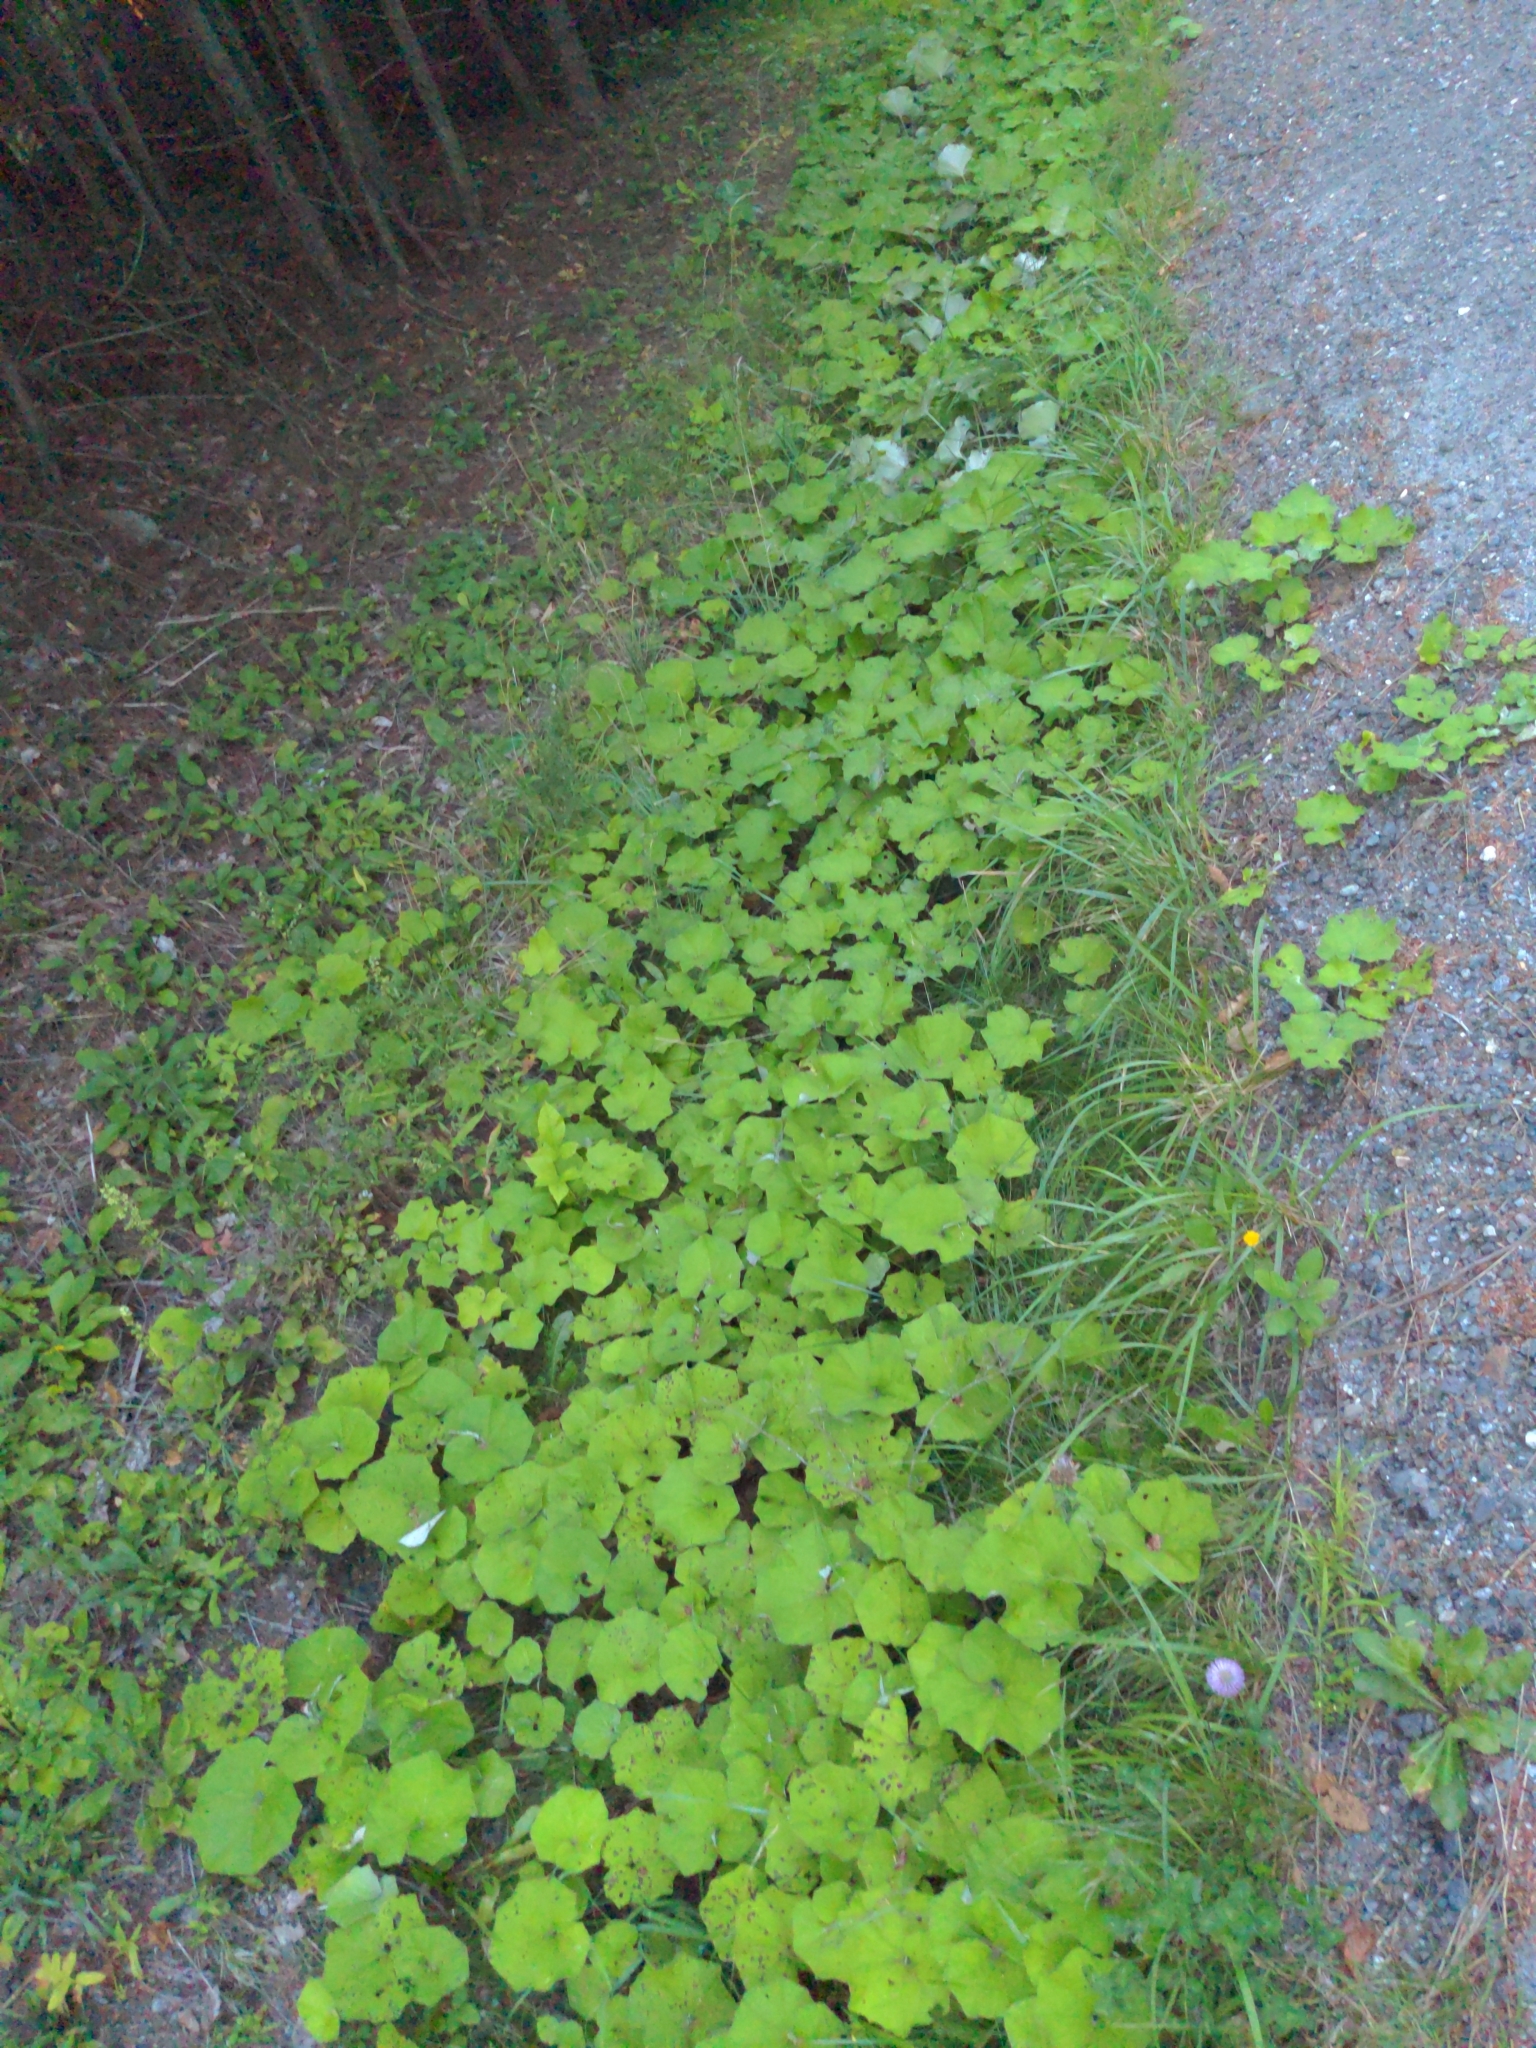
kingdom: Plantae
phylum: Tracheophyta
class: Magnoliopsida
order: Asterales
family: Asteraceae
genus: Tussilago
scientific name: Tussilago farfara
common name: Coltsfoot
